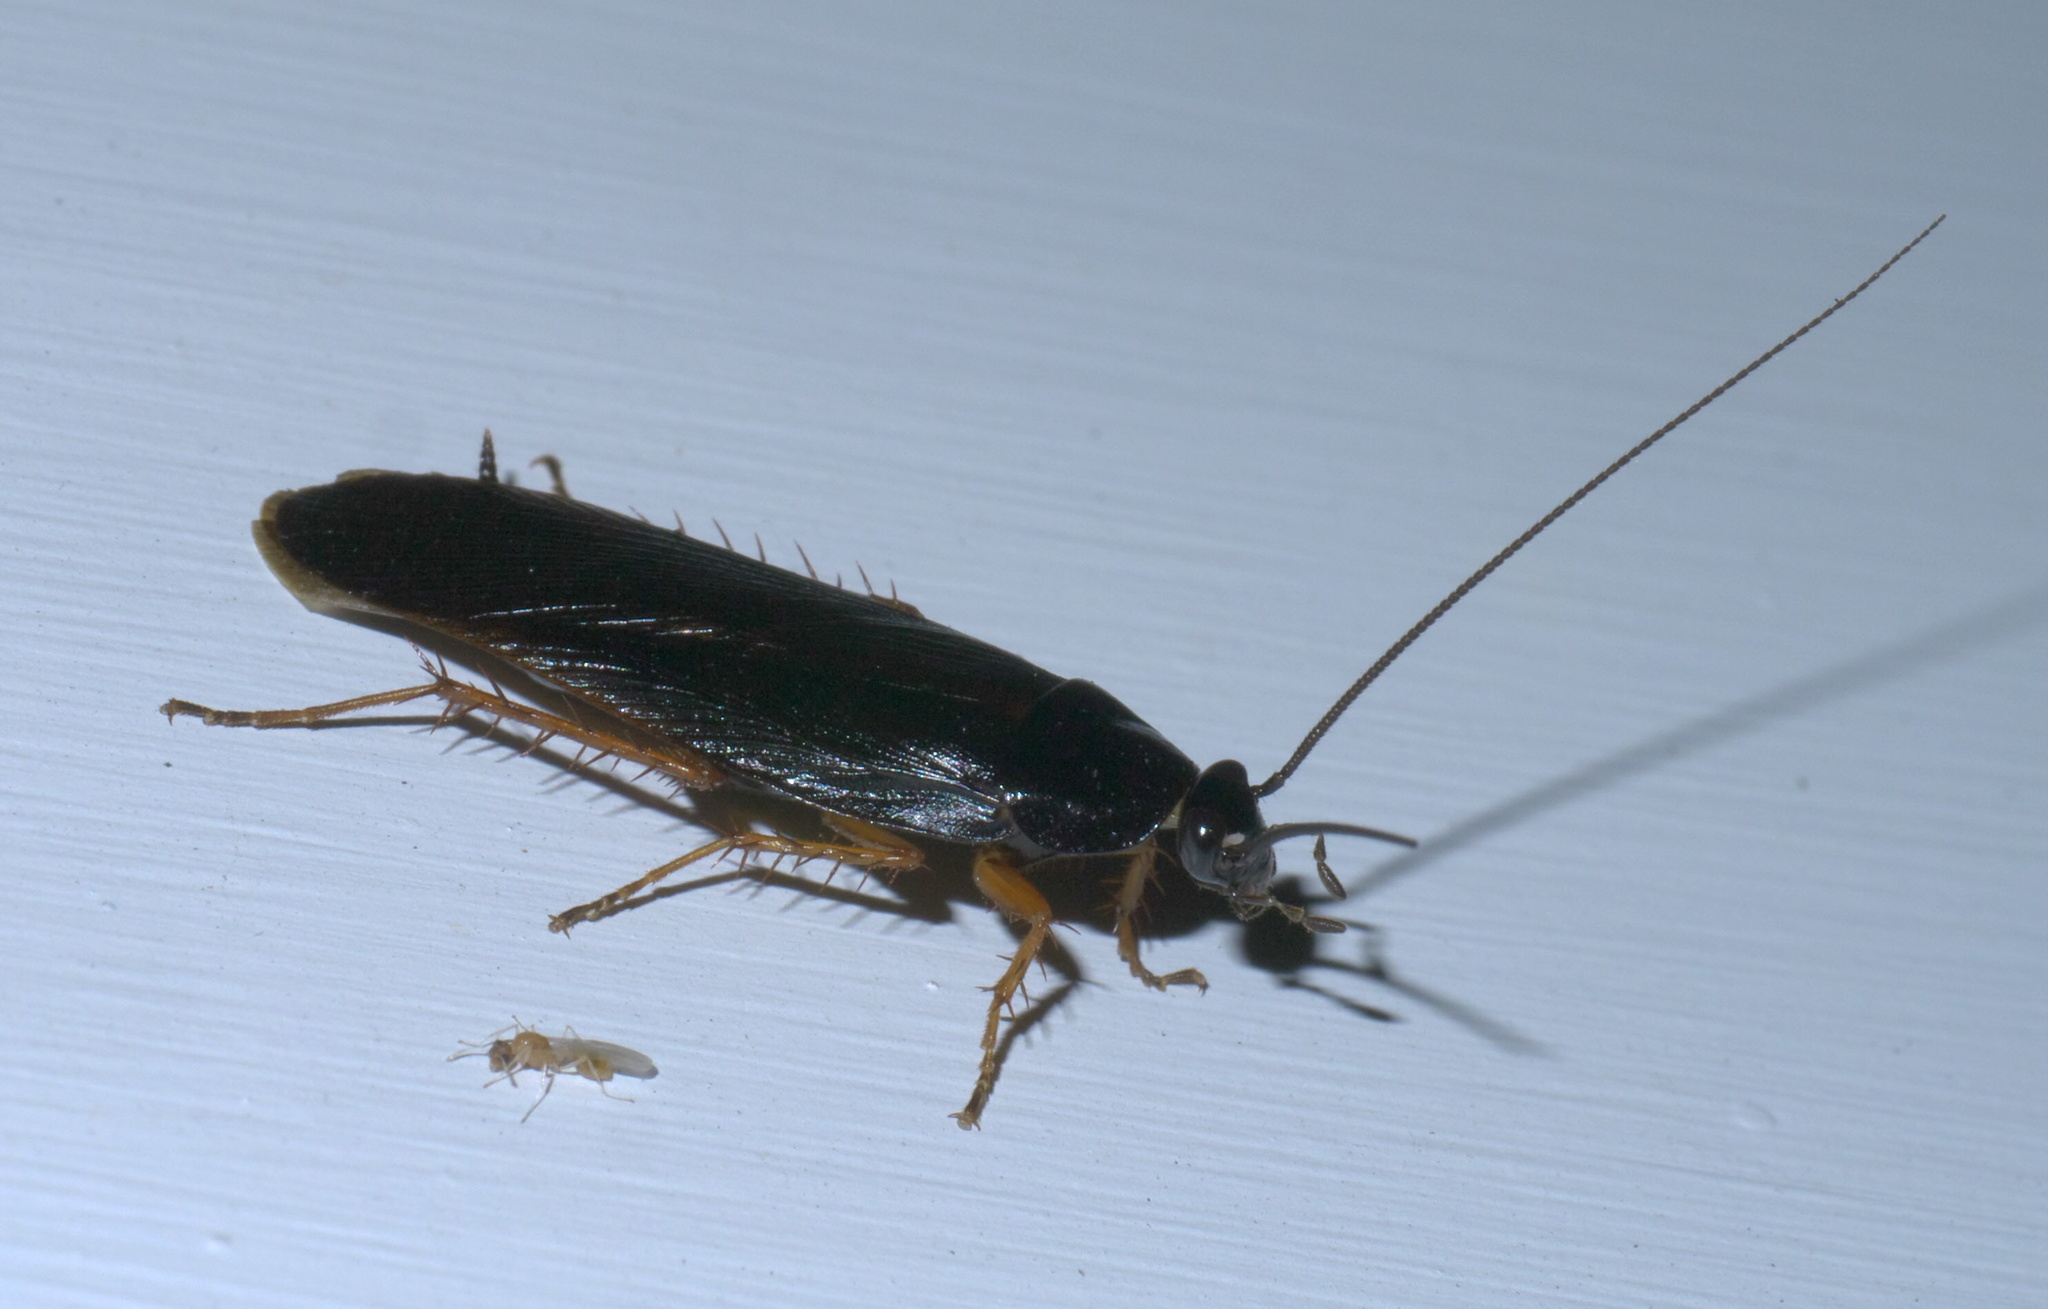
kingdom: Animalia
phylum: Arthropoda
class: Insecta
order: Blattodea
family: Ectobiidae
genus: Ischnoptera
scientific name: Ischnoptera deropeltiformis
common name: Dark wood cockroach
